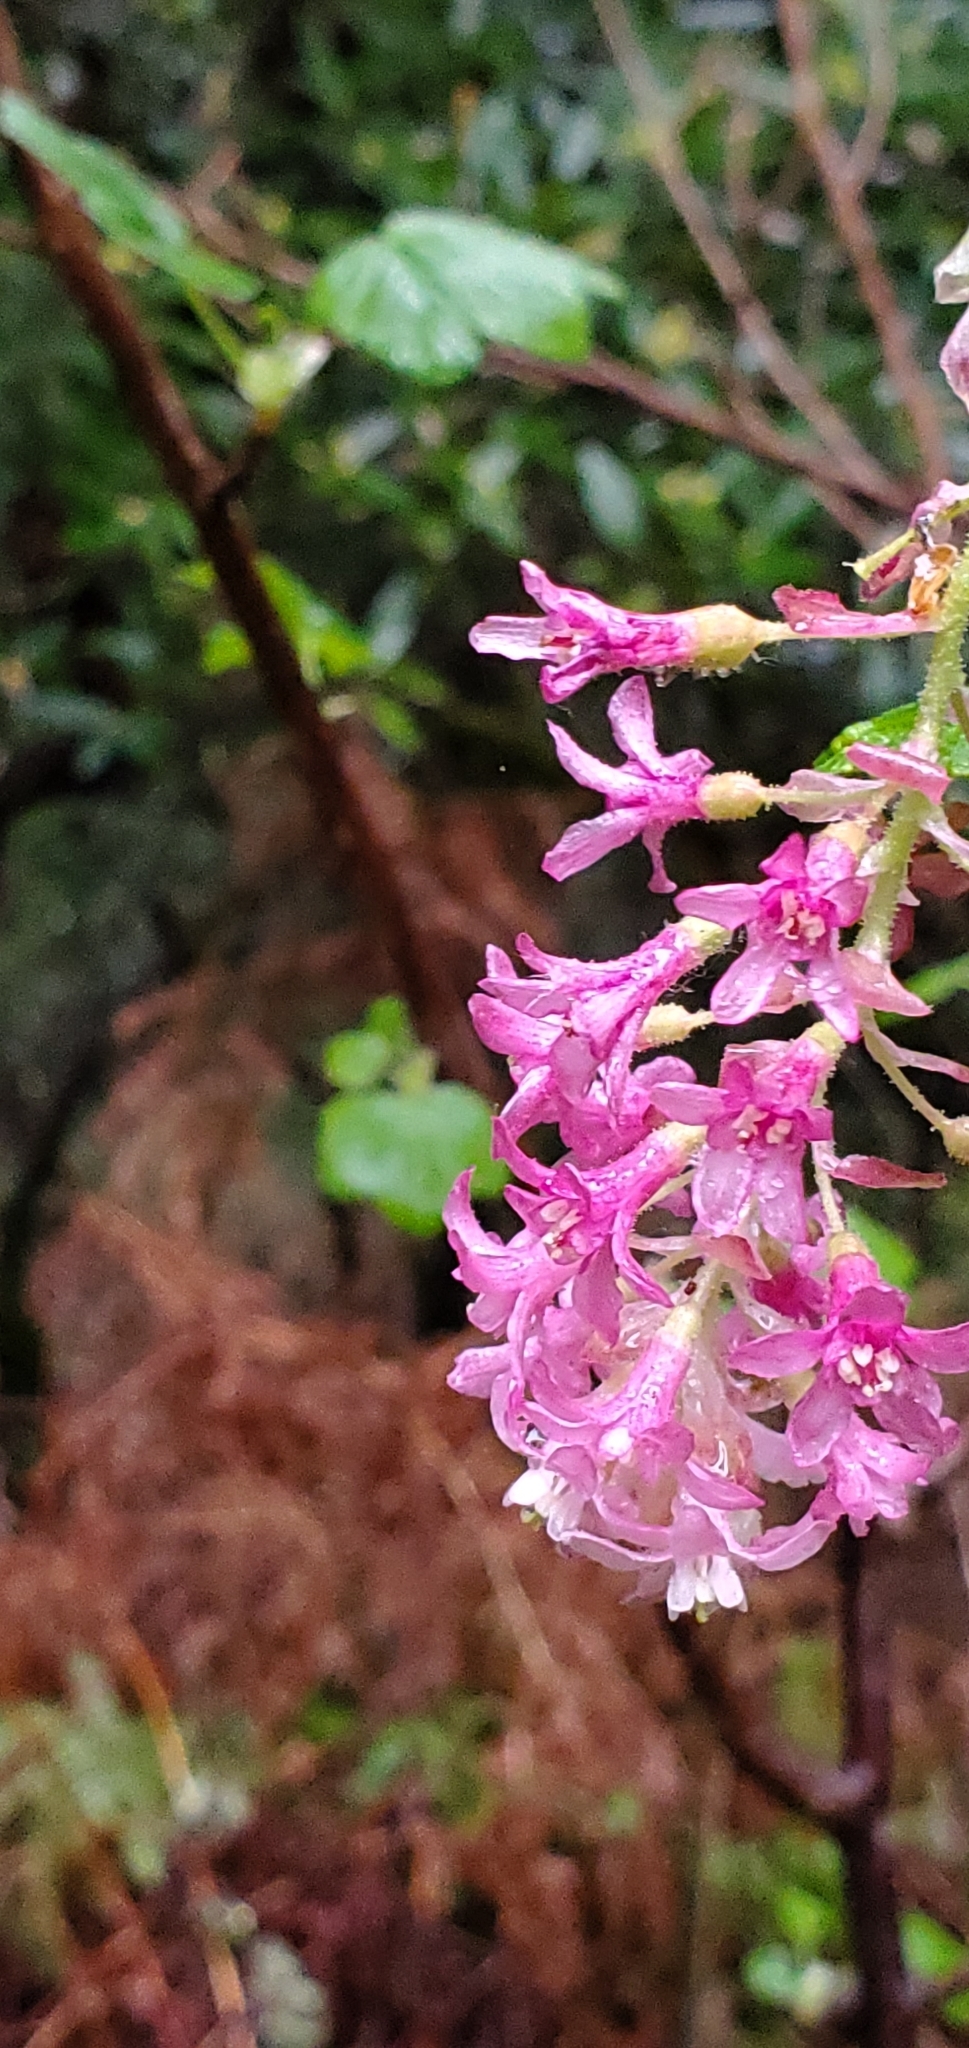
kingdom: Plantae
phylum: Tracheophyta
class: Magnoliopsida
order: Saxifragales
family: Grossulariaceae
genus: Ribes
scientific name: Ribes sanguineum
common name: Flowering currant
